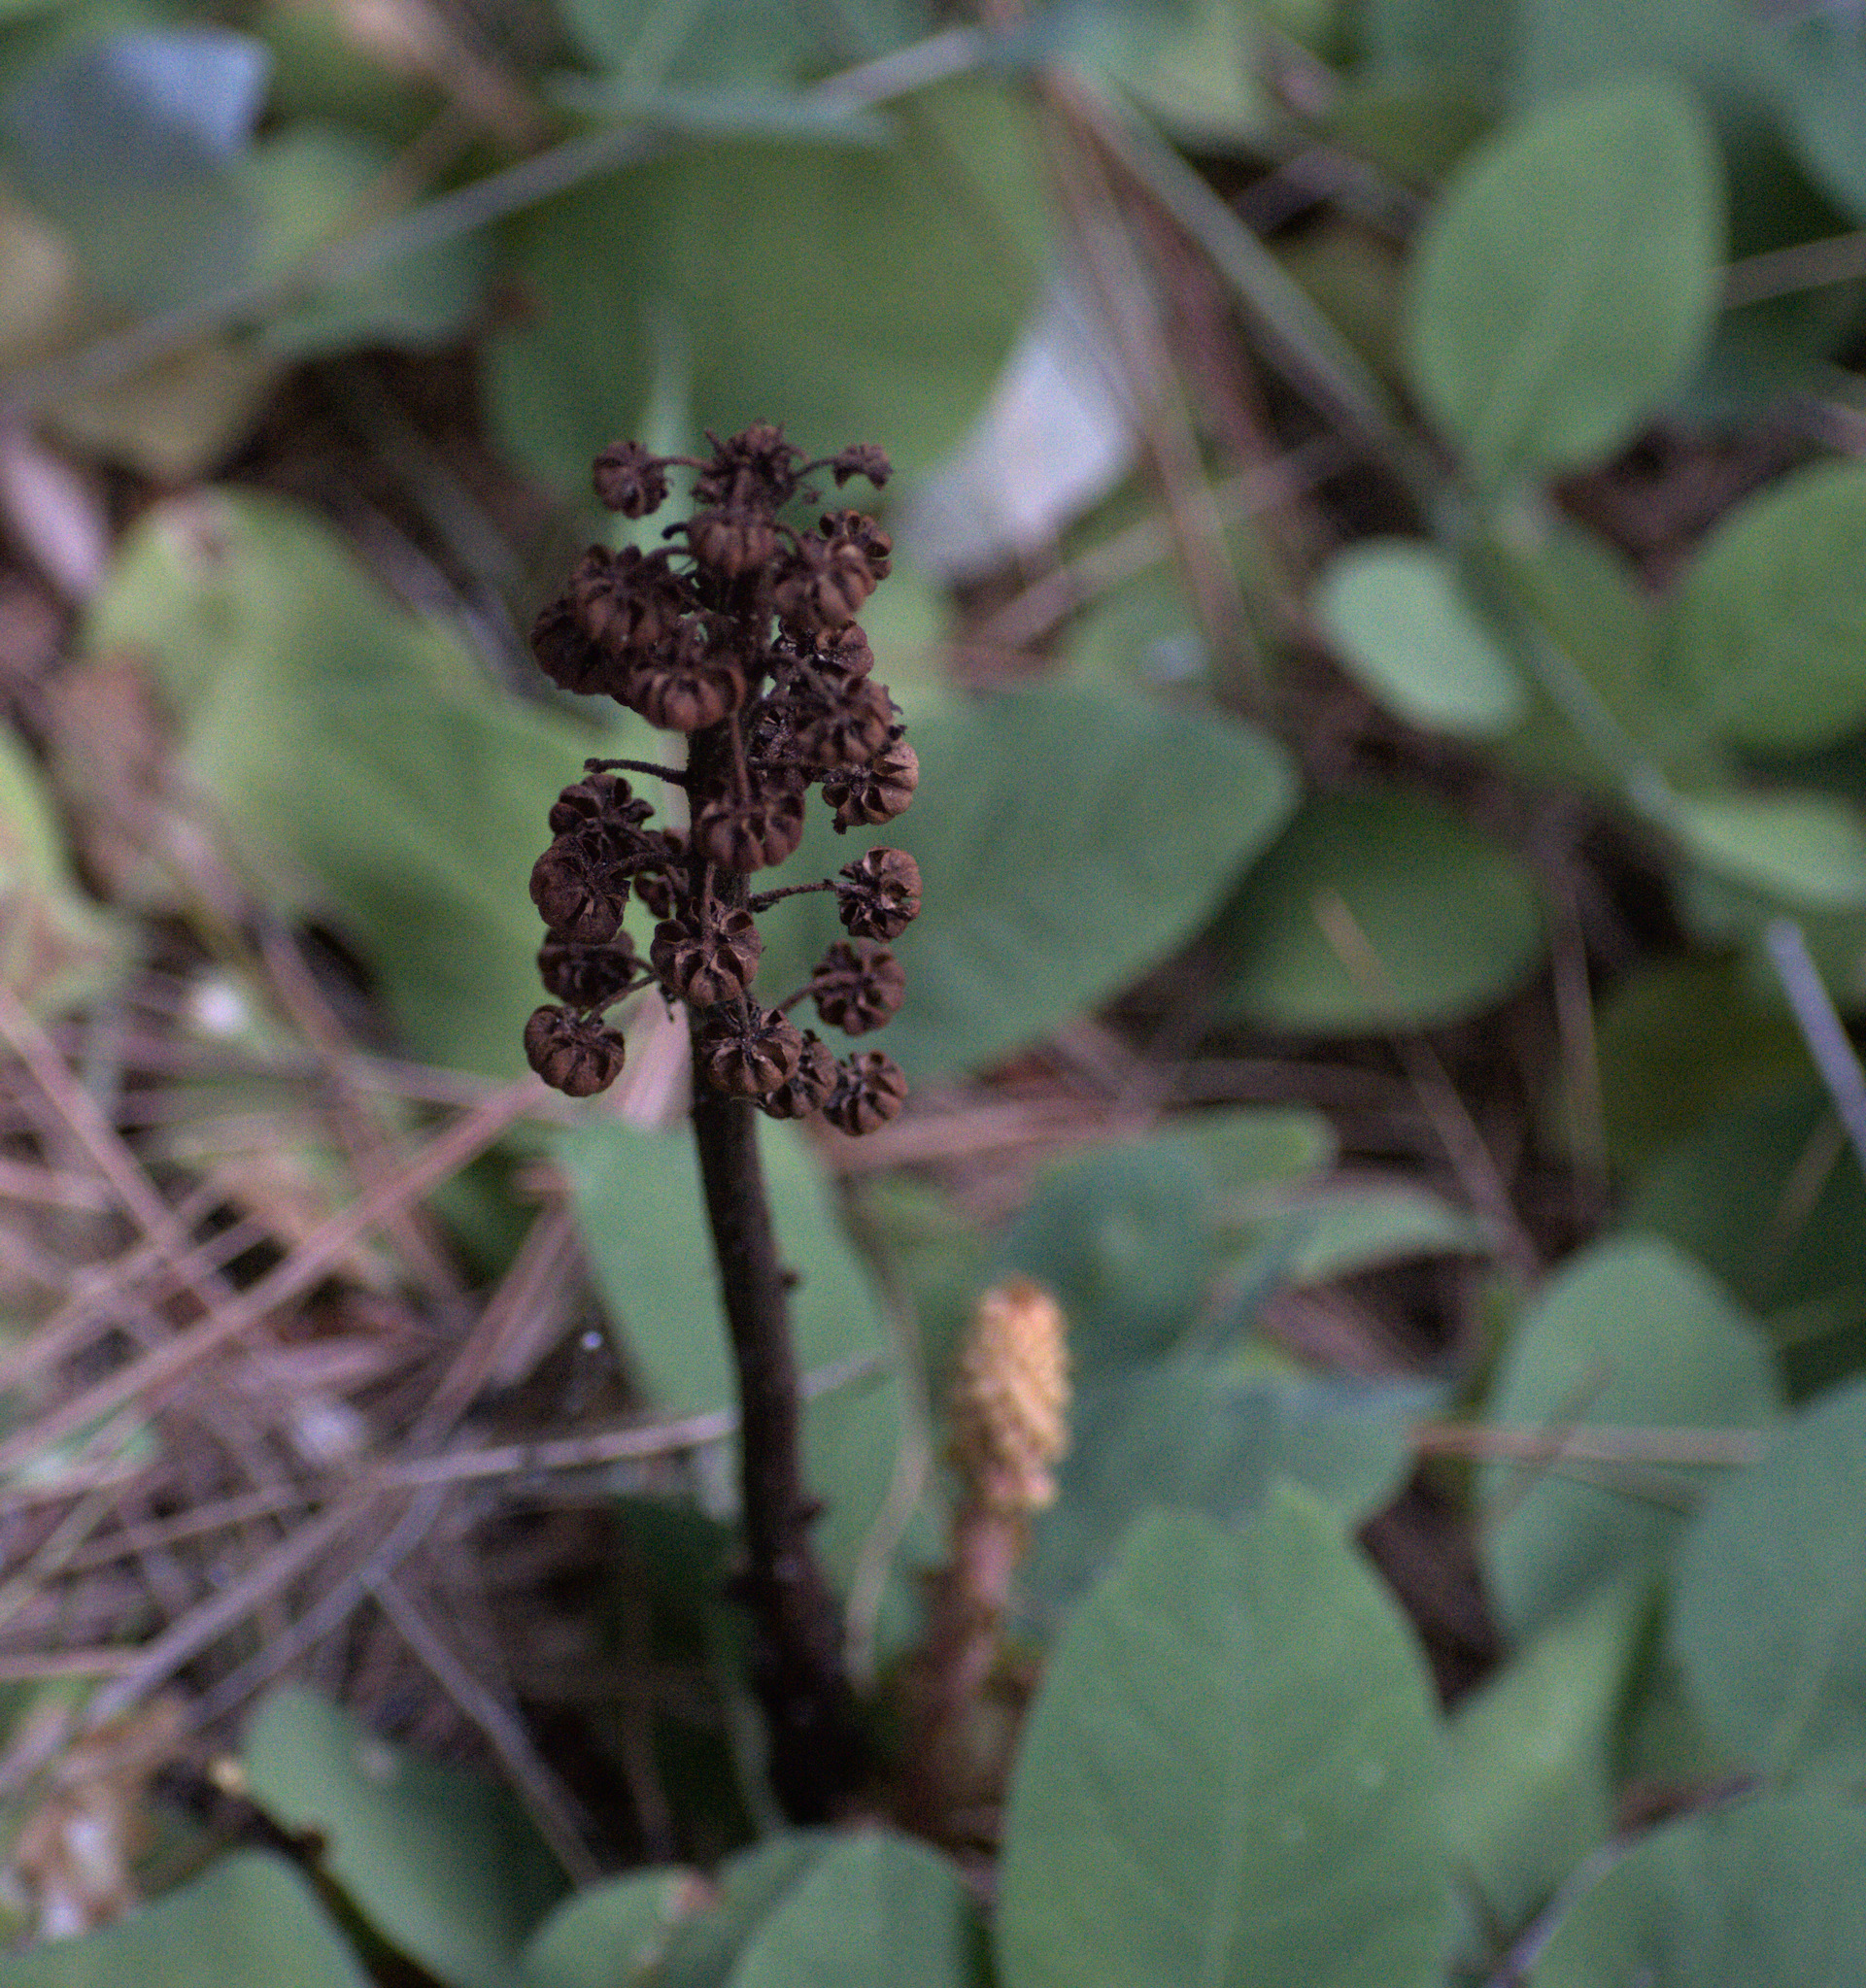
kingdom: Plantae
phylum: Tracheophyta
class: Magnoliopsida
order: Ericales
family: Ericaceae
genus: Pterospora
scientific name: Pterospora andromedea
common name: Giant bird's-nest
